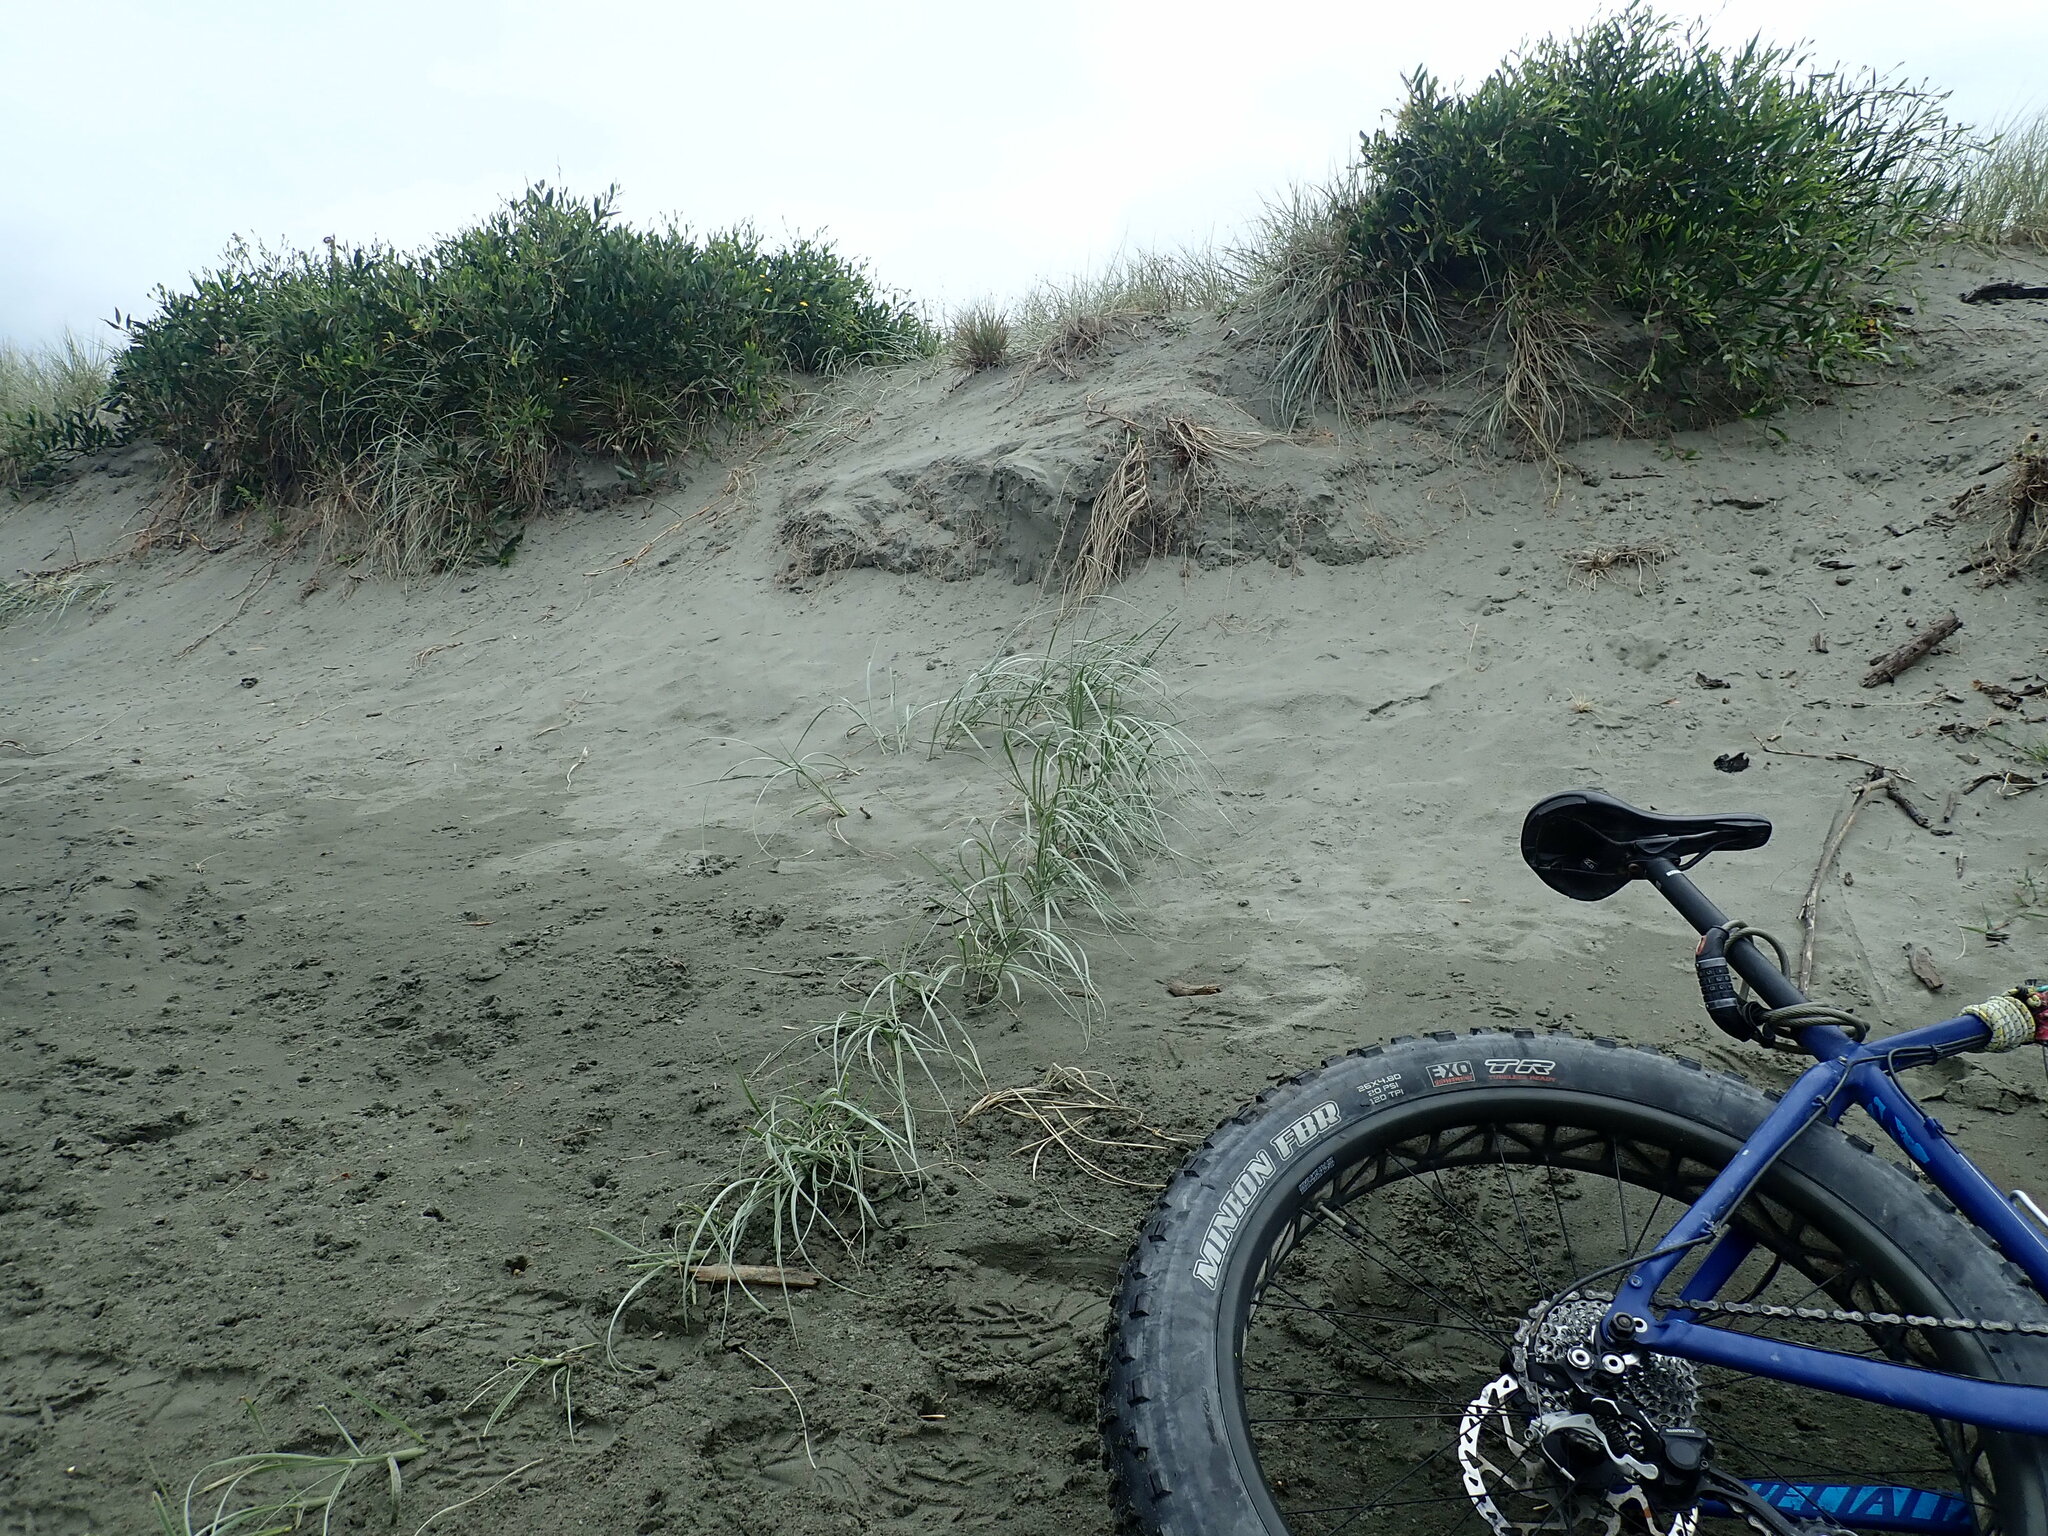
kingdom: Plantae
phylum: Tracheophyta
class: Magnoliopsida
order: Fabales
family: Fabaceae
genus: Acacia
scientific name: Acacia longifolia
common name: Sydney golden wattle
